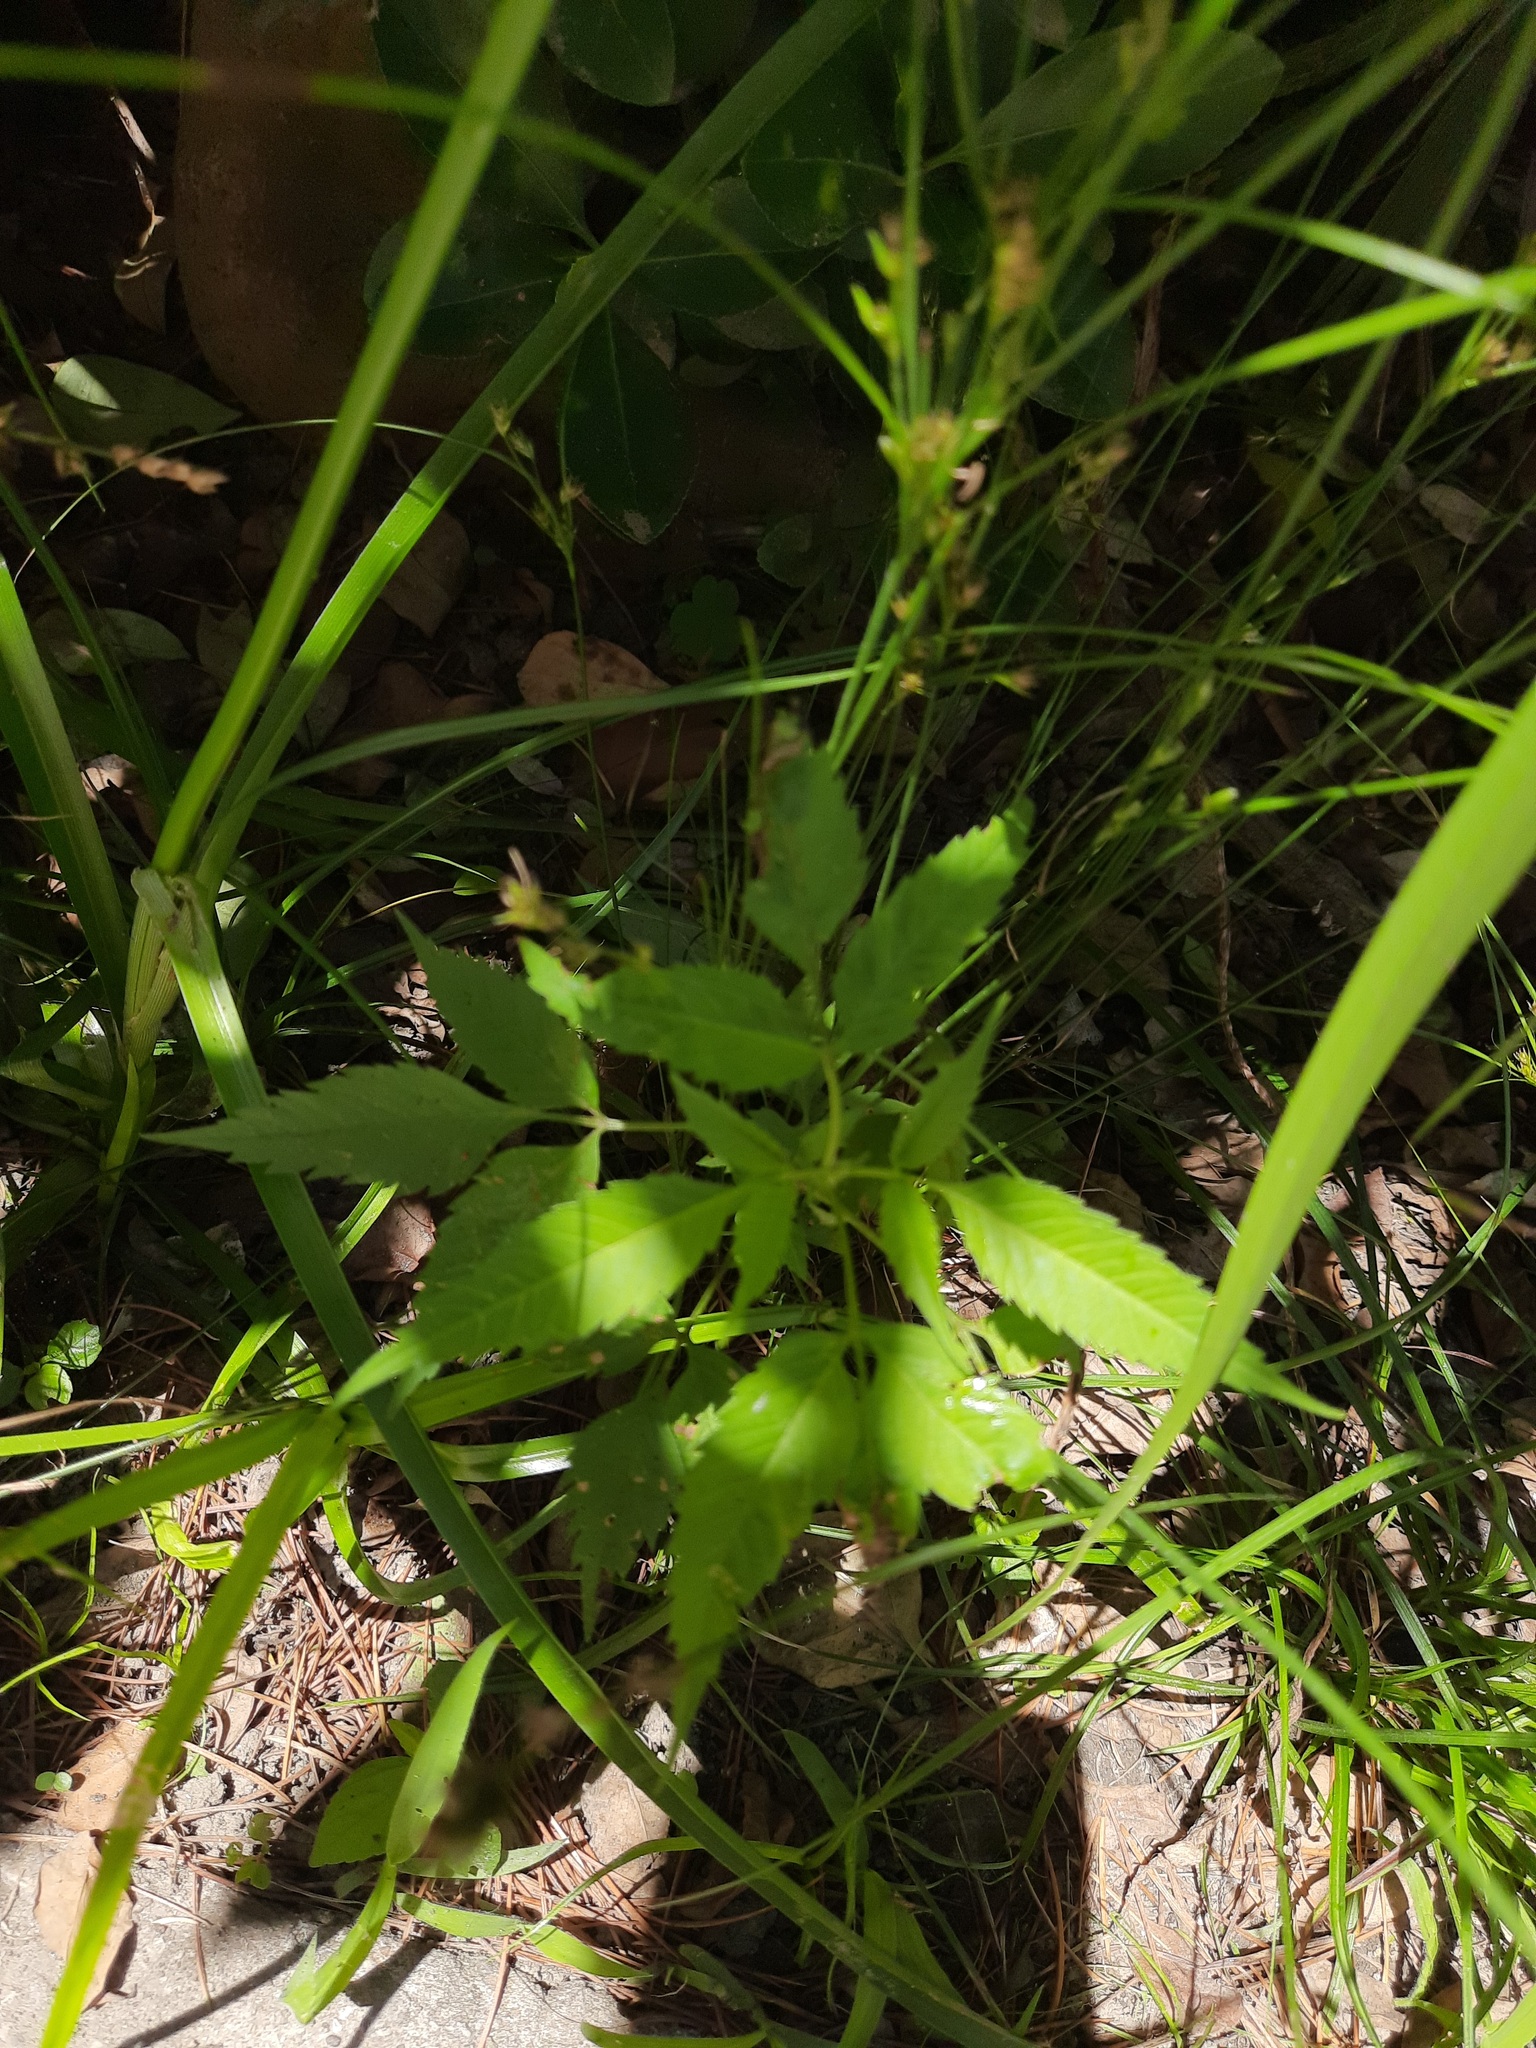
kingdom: Plantae
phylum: Tracheophyta
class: Magnoliopsida
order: Asterales
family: Asteraceae
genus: Bidens
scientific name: Bidens frondosa
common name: Beggarticks
